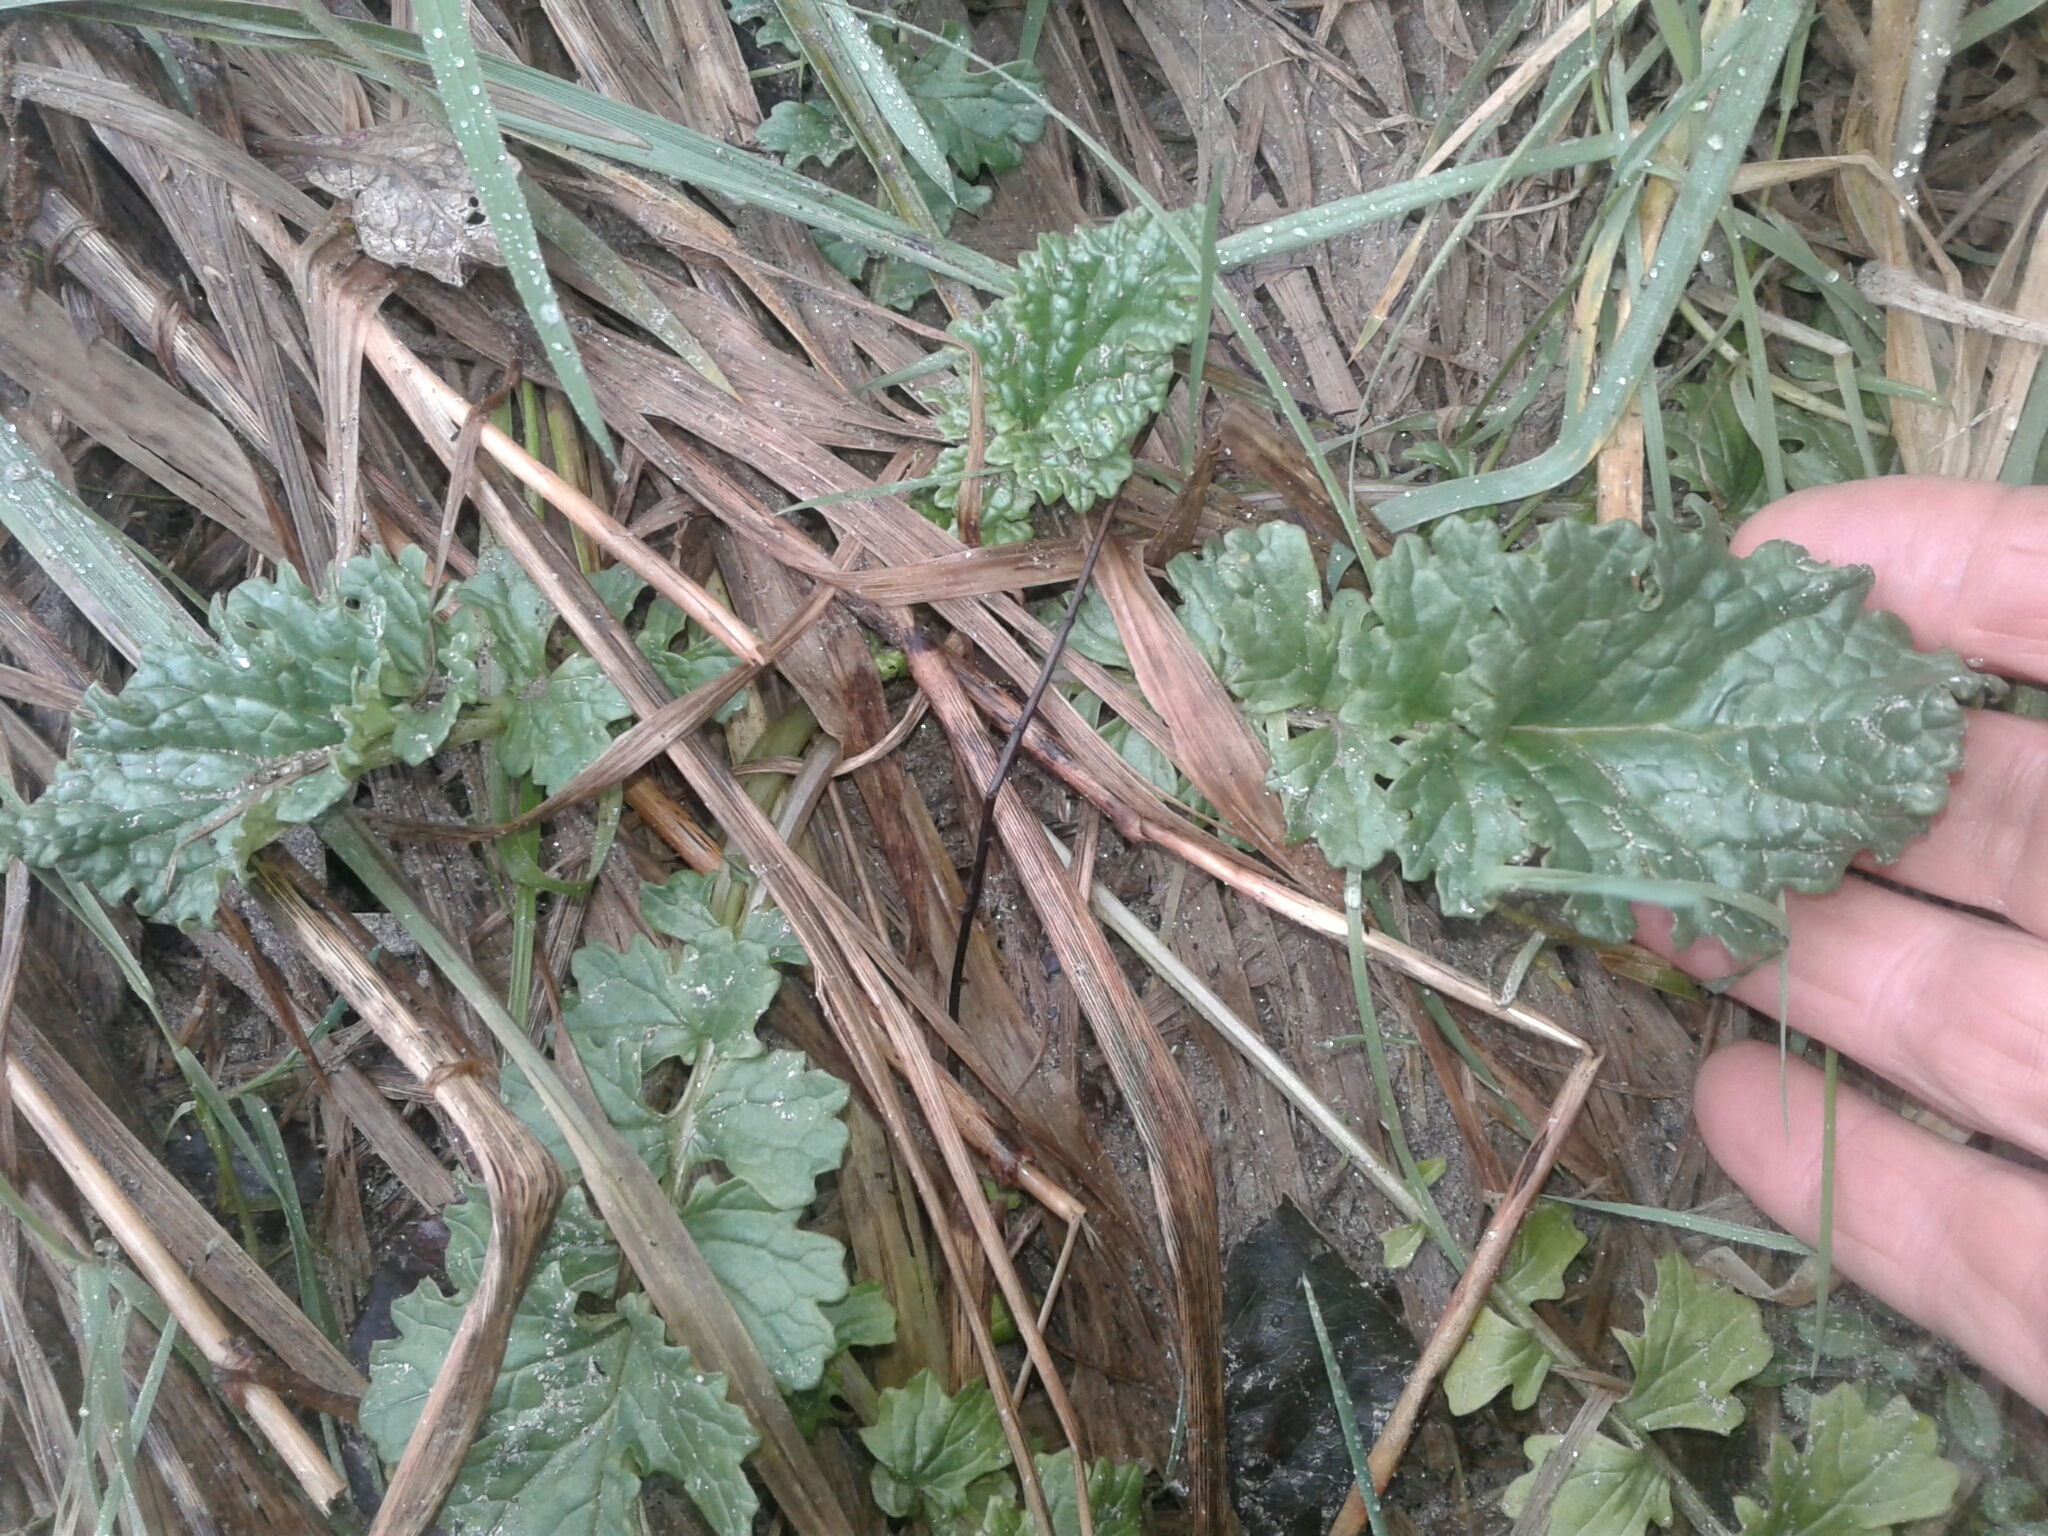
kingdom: Plantae
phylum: Tracheophyta
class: Magnoliopsida
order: Asterales
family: Asteraceae
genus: Jacobaea
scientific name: Jacobaea vulgaris
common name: Stinking willie
